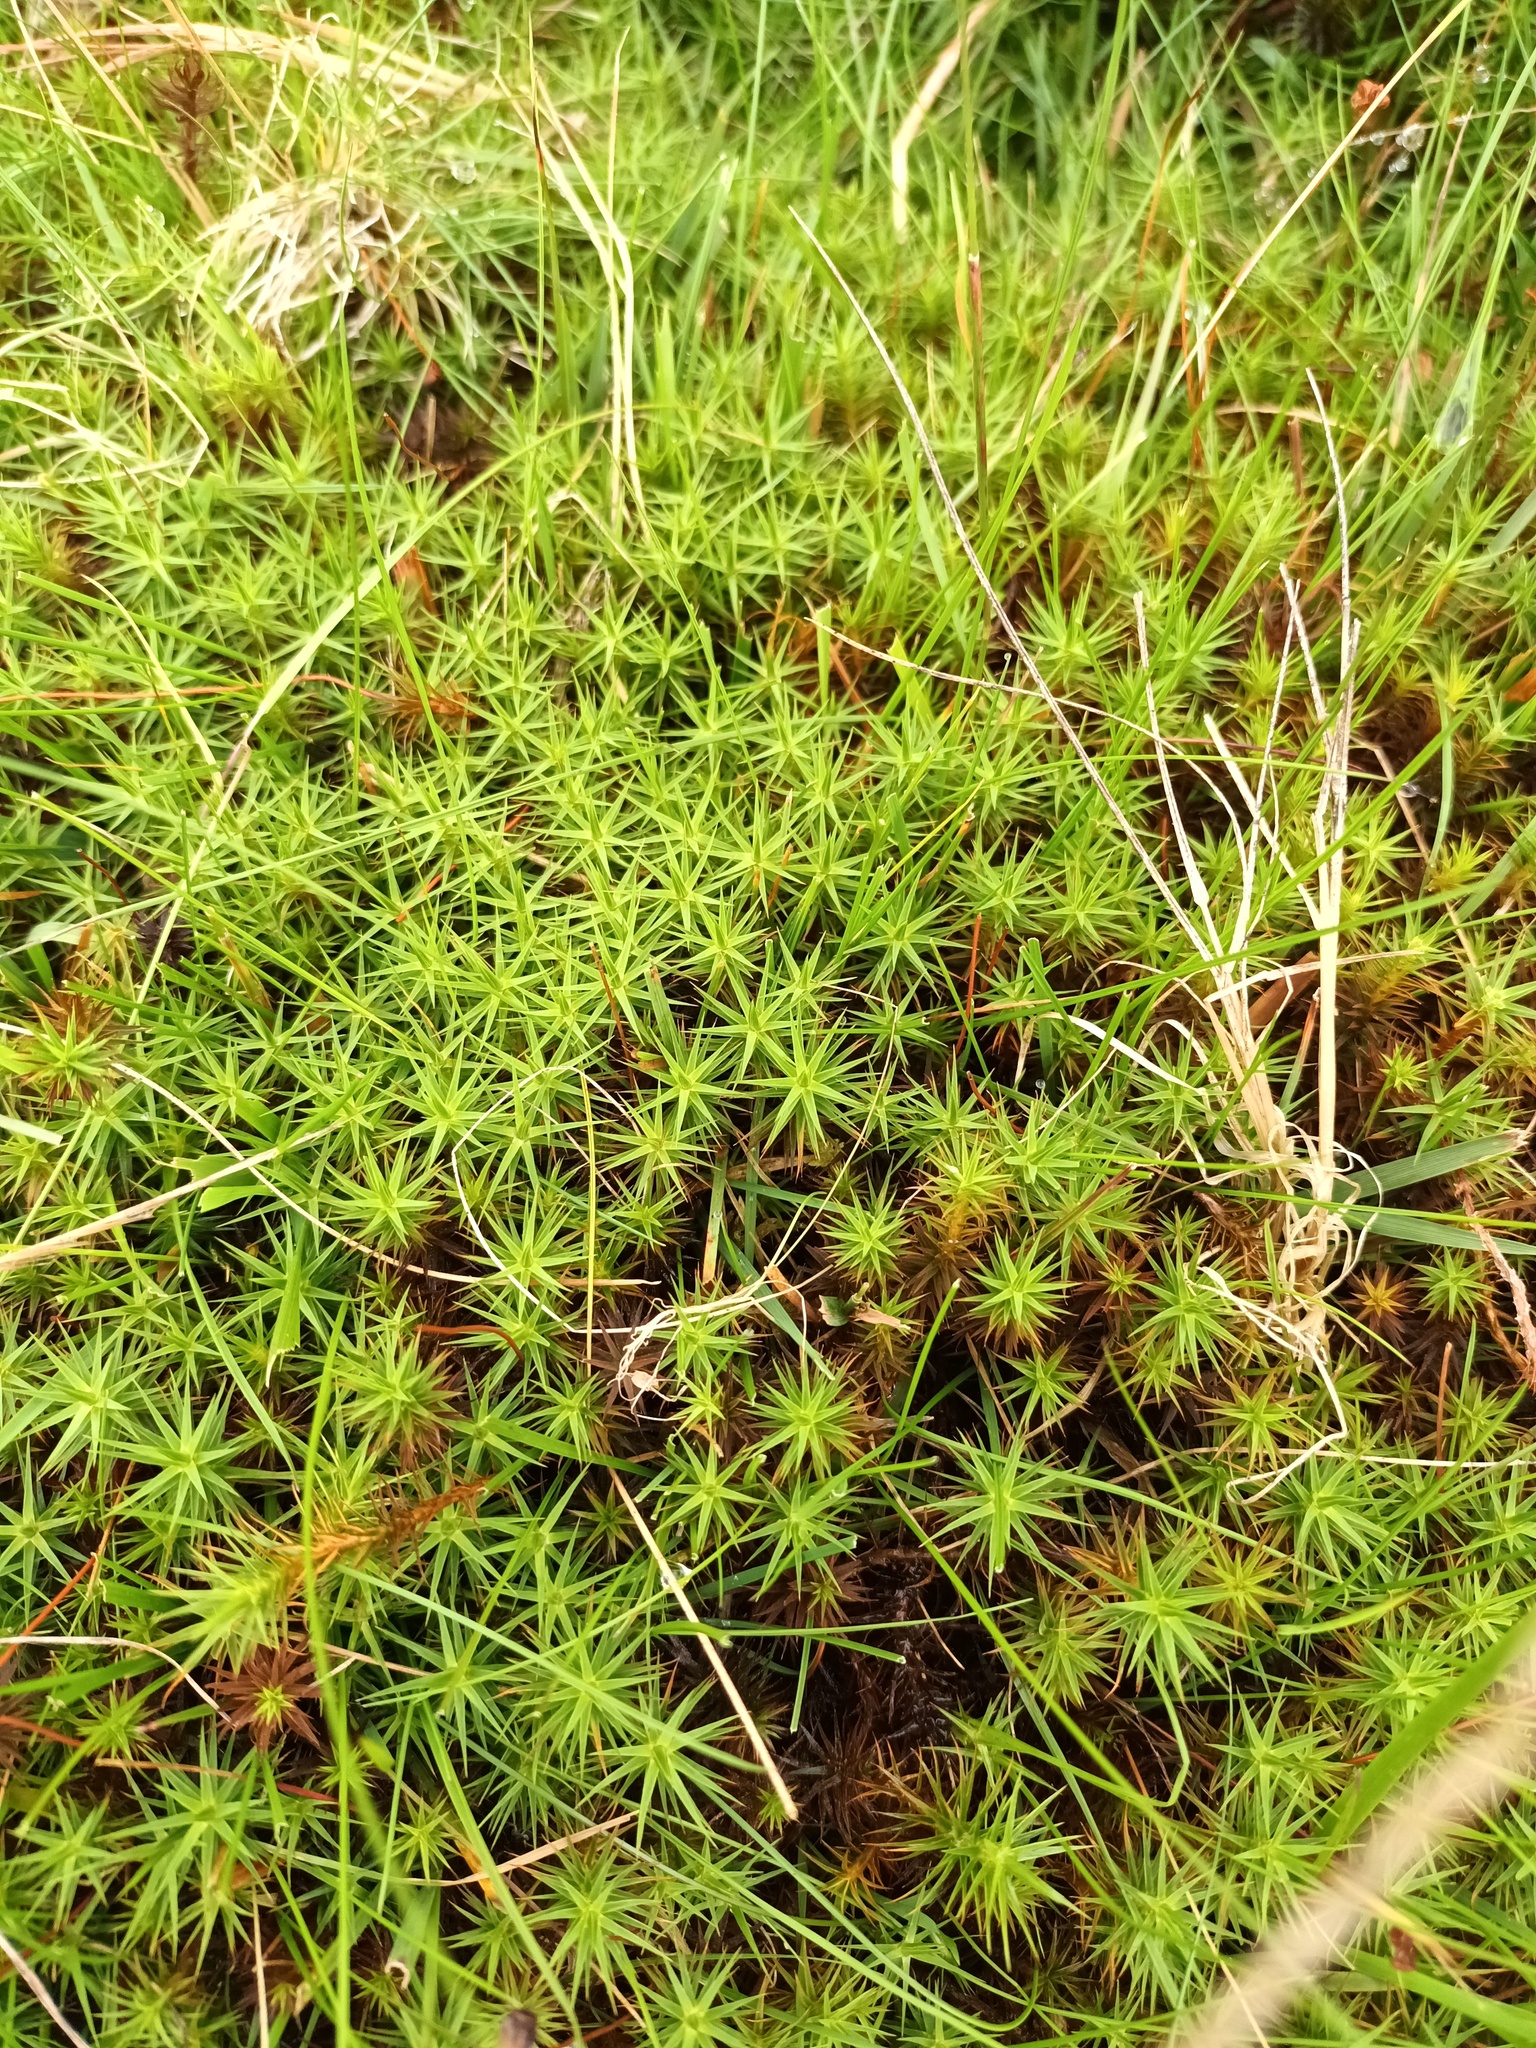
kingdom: Plantae
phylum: Bryophyta
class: Polytrichopsida
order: Polytrichales
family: Polytrichaceae
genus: Polytrichum
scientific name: Polytrichum commune
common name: Common haircap
